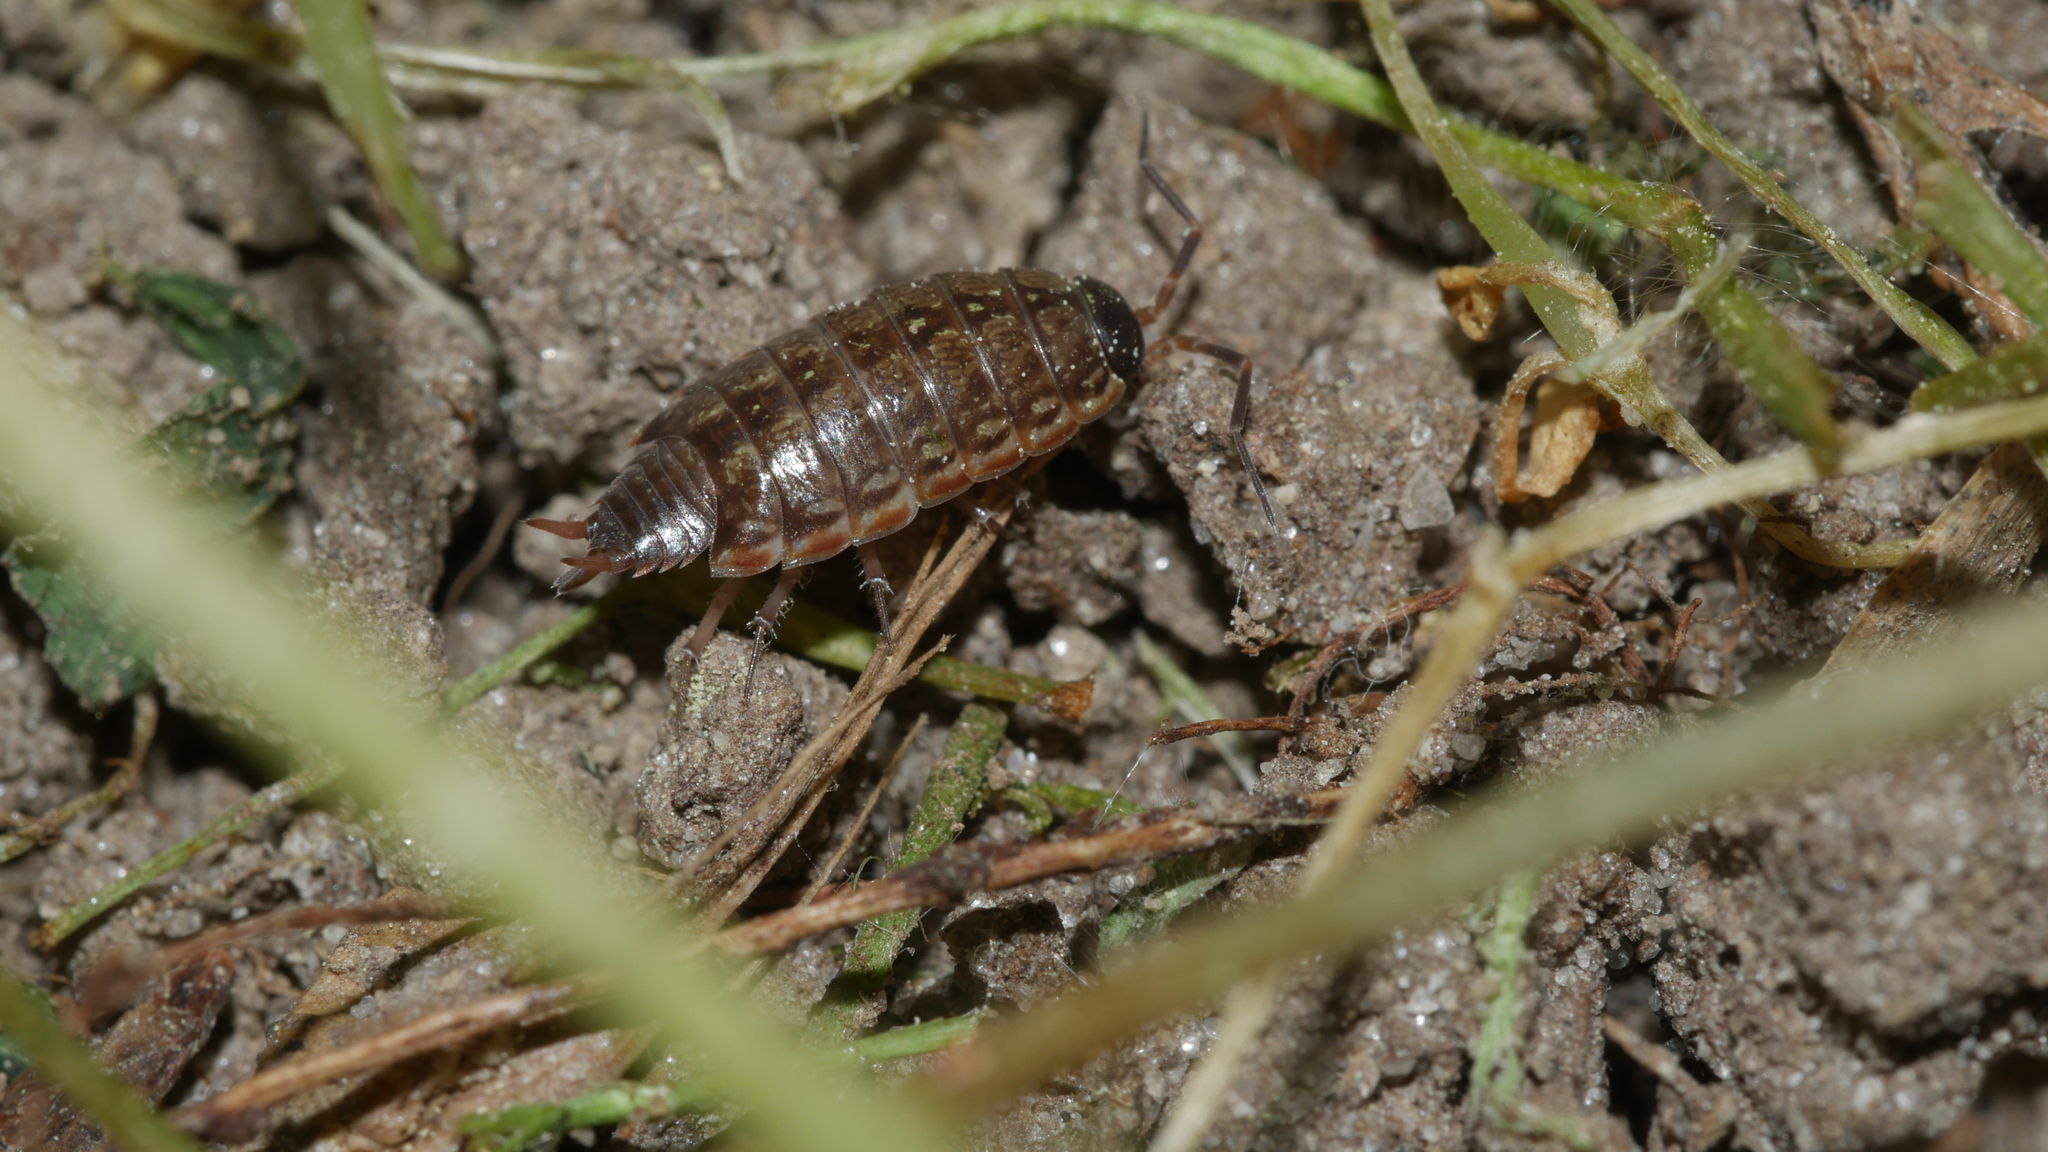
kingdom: Animalia
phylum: Arthropoda
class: Malacostraca
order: Isopoda
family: Philosciidae
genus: Philoscia
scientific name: Philoscia muscorum
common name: Common striped woodlouse
